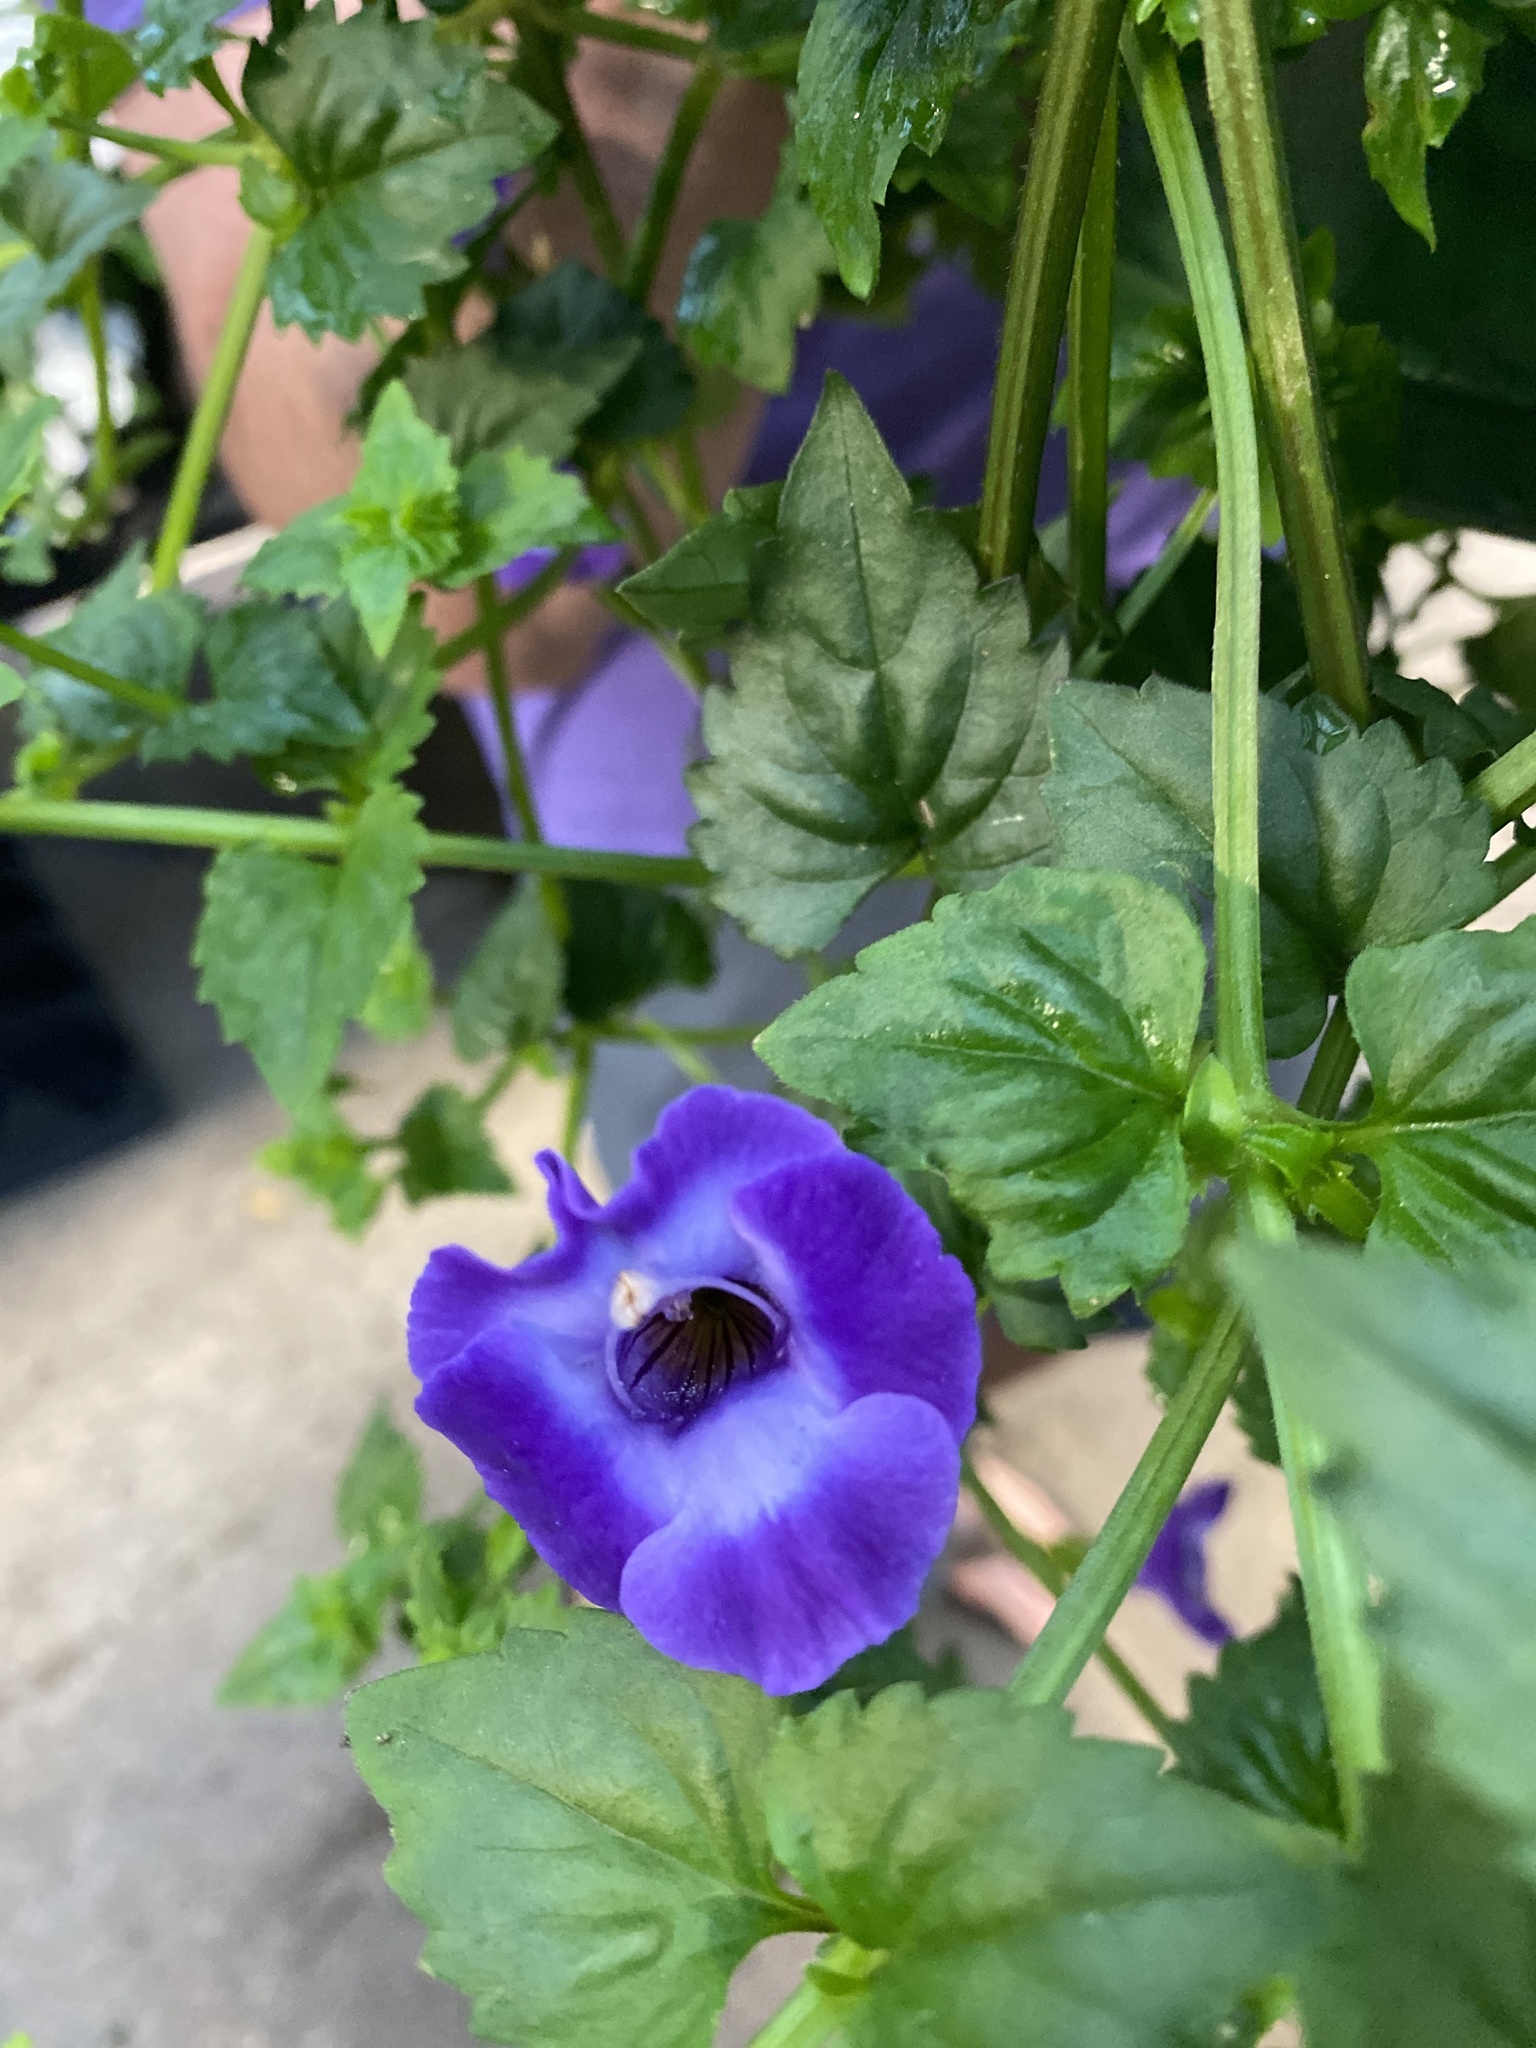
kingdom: Plantae
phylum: Tracheophyta
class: Magnoliopsida
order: Lamiales
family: Linderniaceae
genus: Torenia
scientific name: Torenia fournieri
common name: Bluewings
